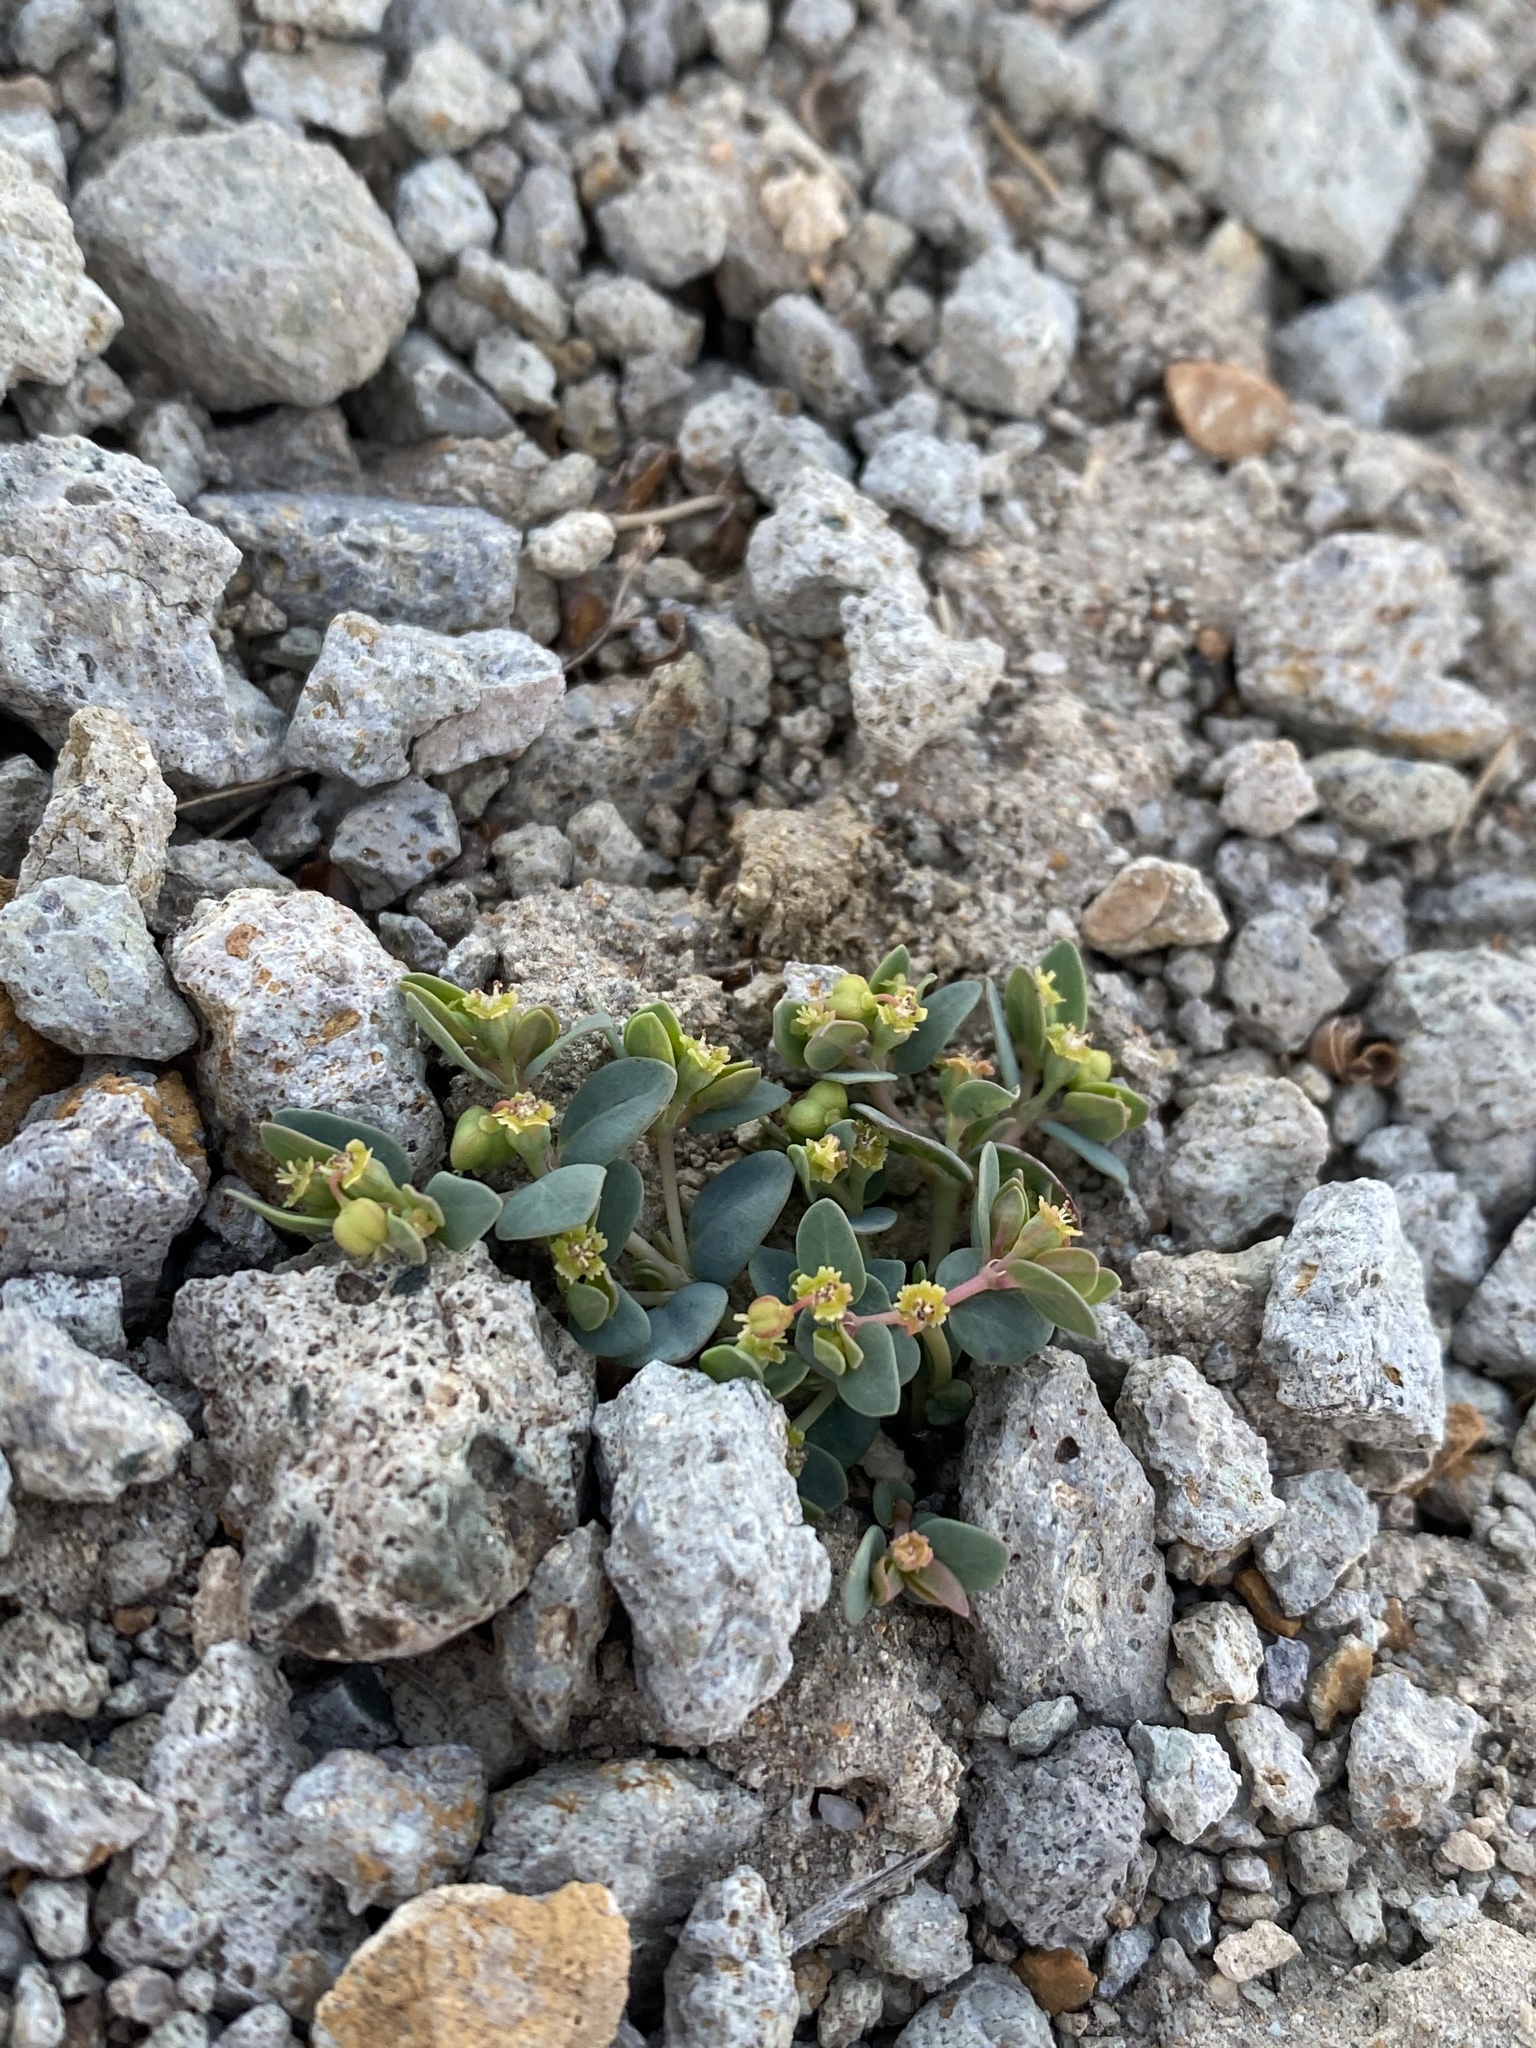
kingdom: Plantae
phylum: Tracheophyta
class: Magnoliopsida
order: Malpighiales
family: Euphorbiaceae
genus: Euphorbia
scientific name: Euphorbia fendleri
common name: Fendler's euphorbia
